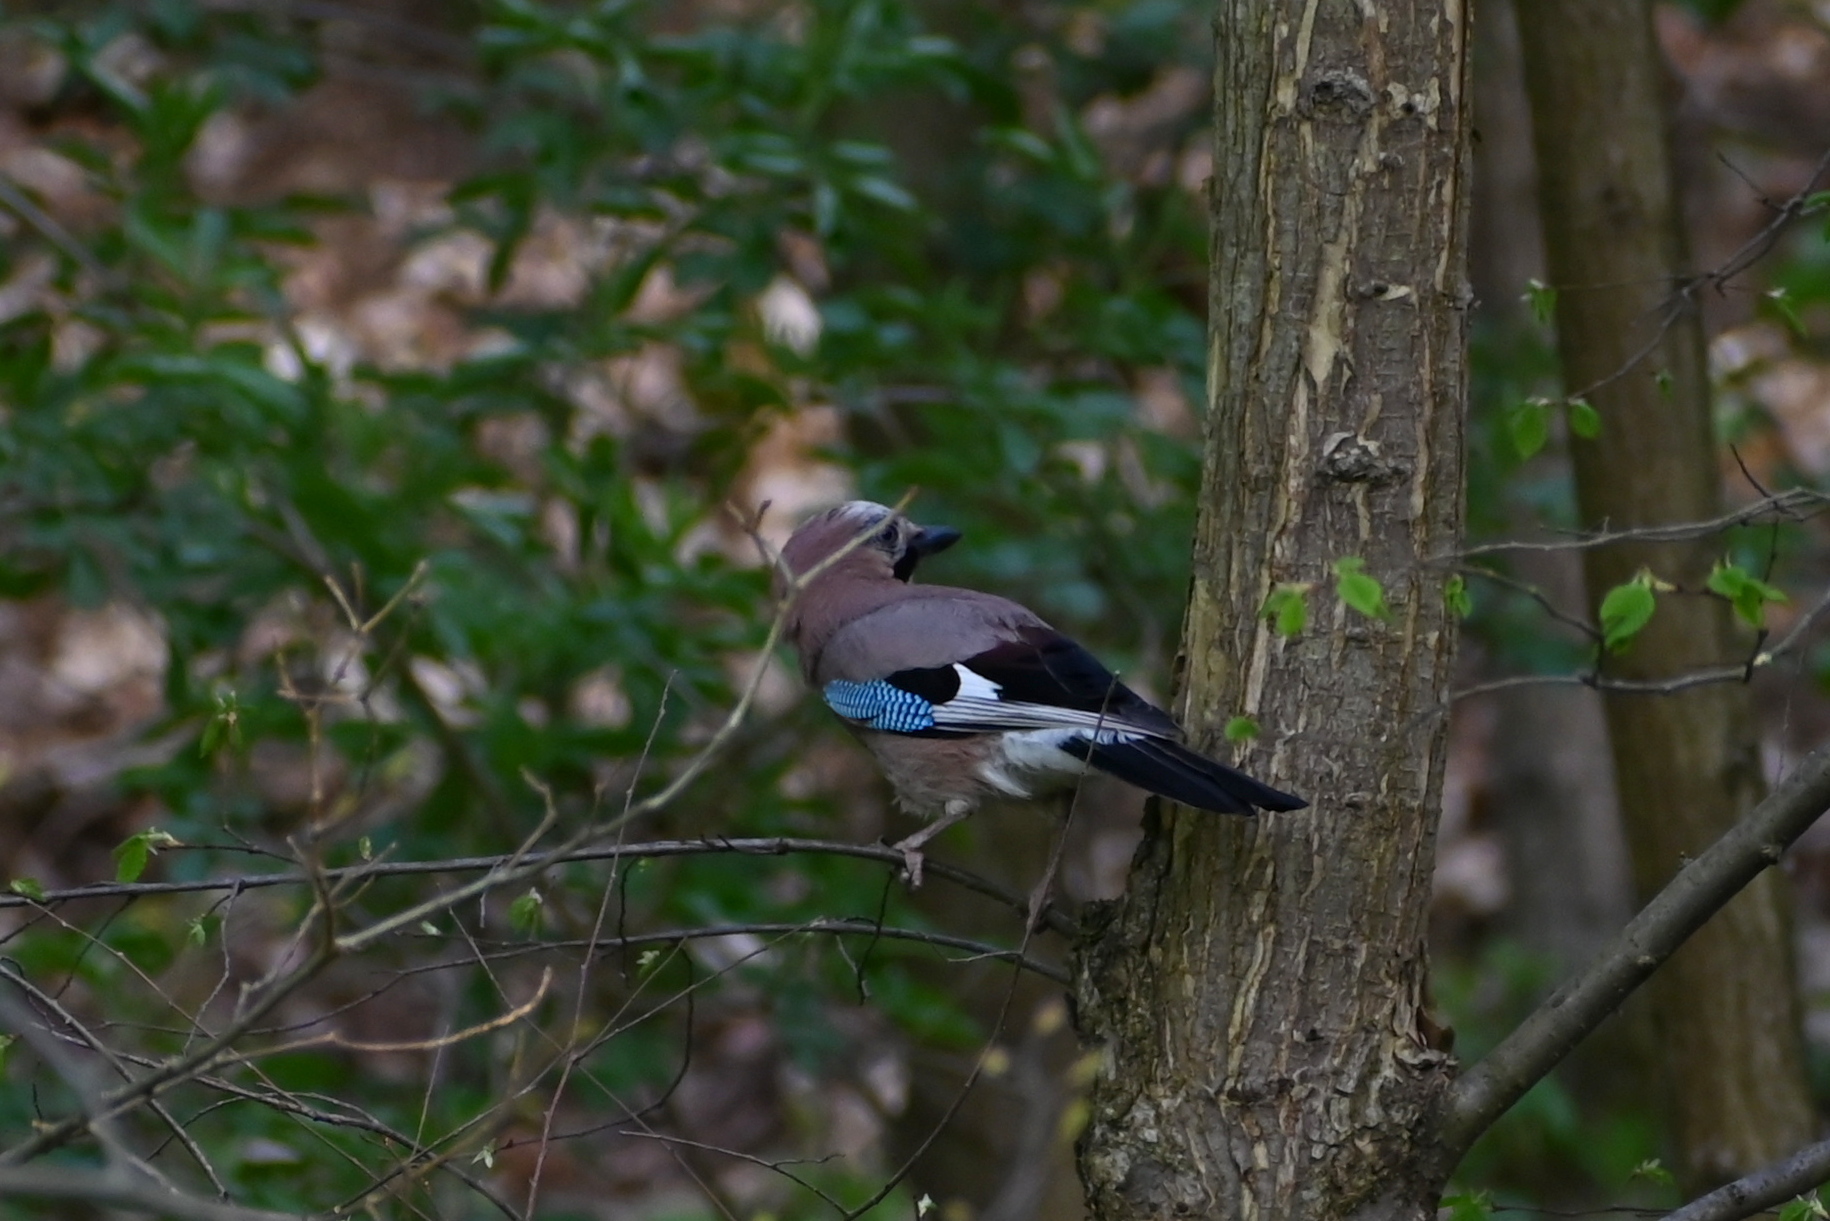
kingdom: Animalia
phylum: Chordata
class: Aves
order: Passeriformes
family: Corvidae
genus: Garrulus
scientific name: Garrulus glandarius
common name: Eurasian jay
